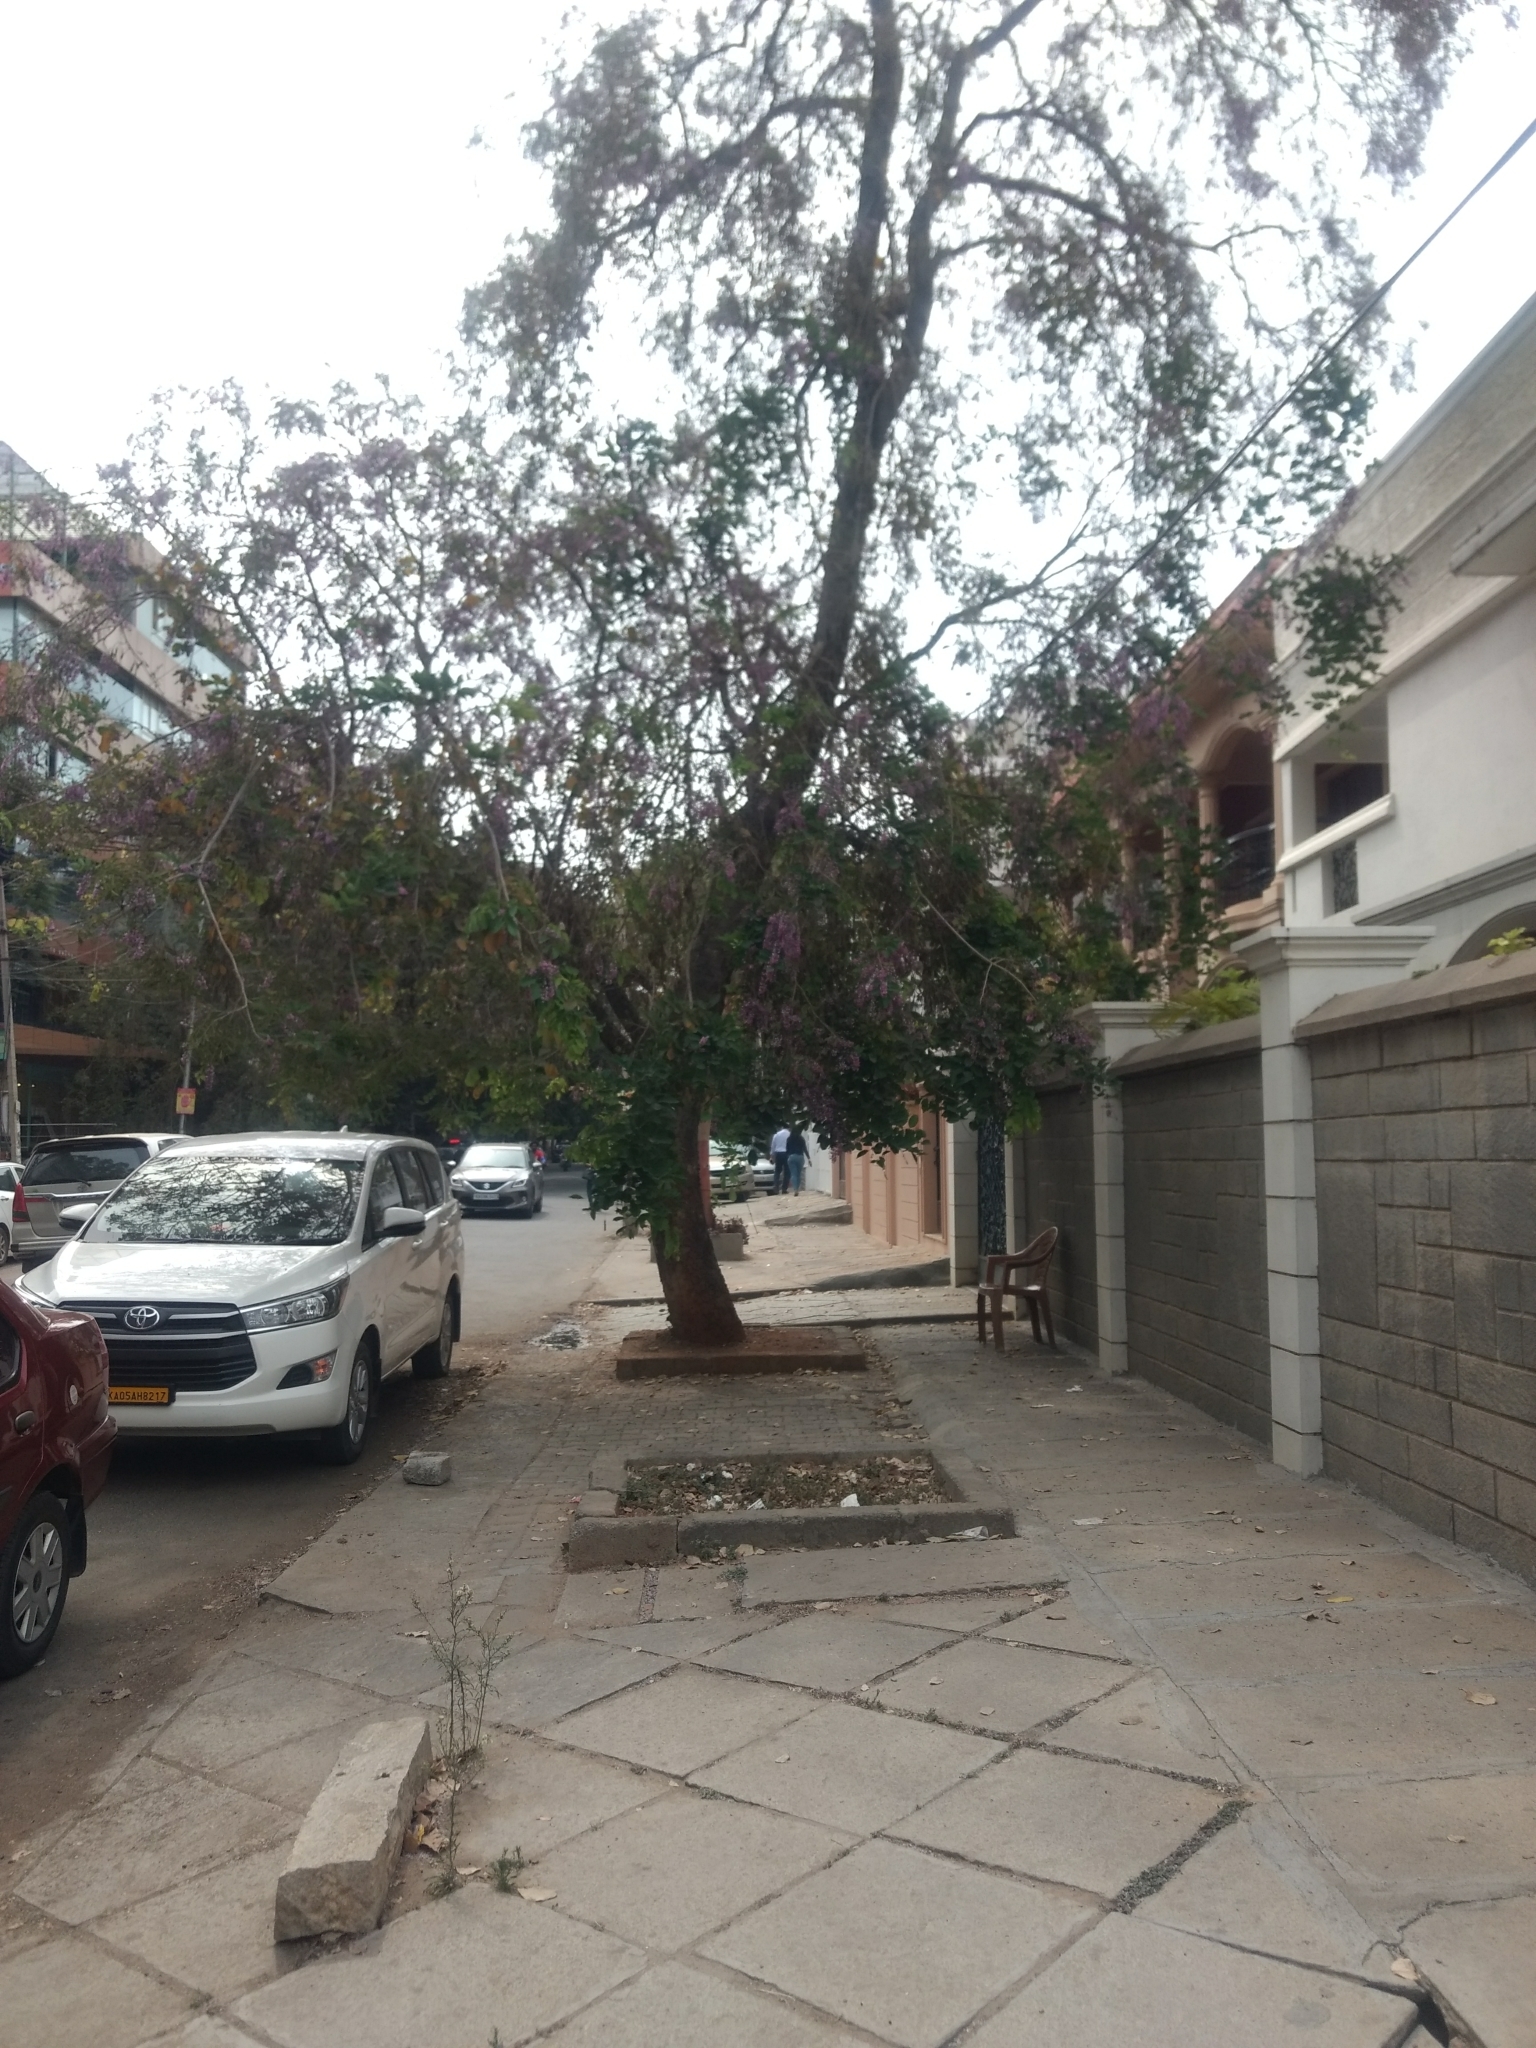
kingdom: Plantae
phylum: Tracheophyta
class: Magnoliopsida
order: Fabales
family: Fabaceae
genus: Millettia
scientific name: Millettia peguensis
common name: Moulmein rosewood
